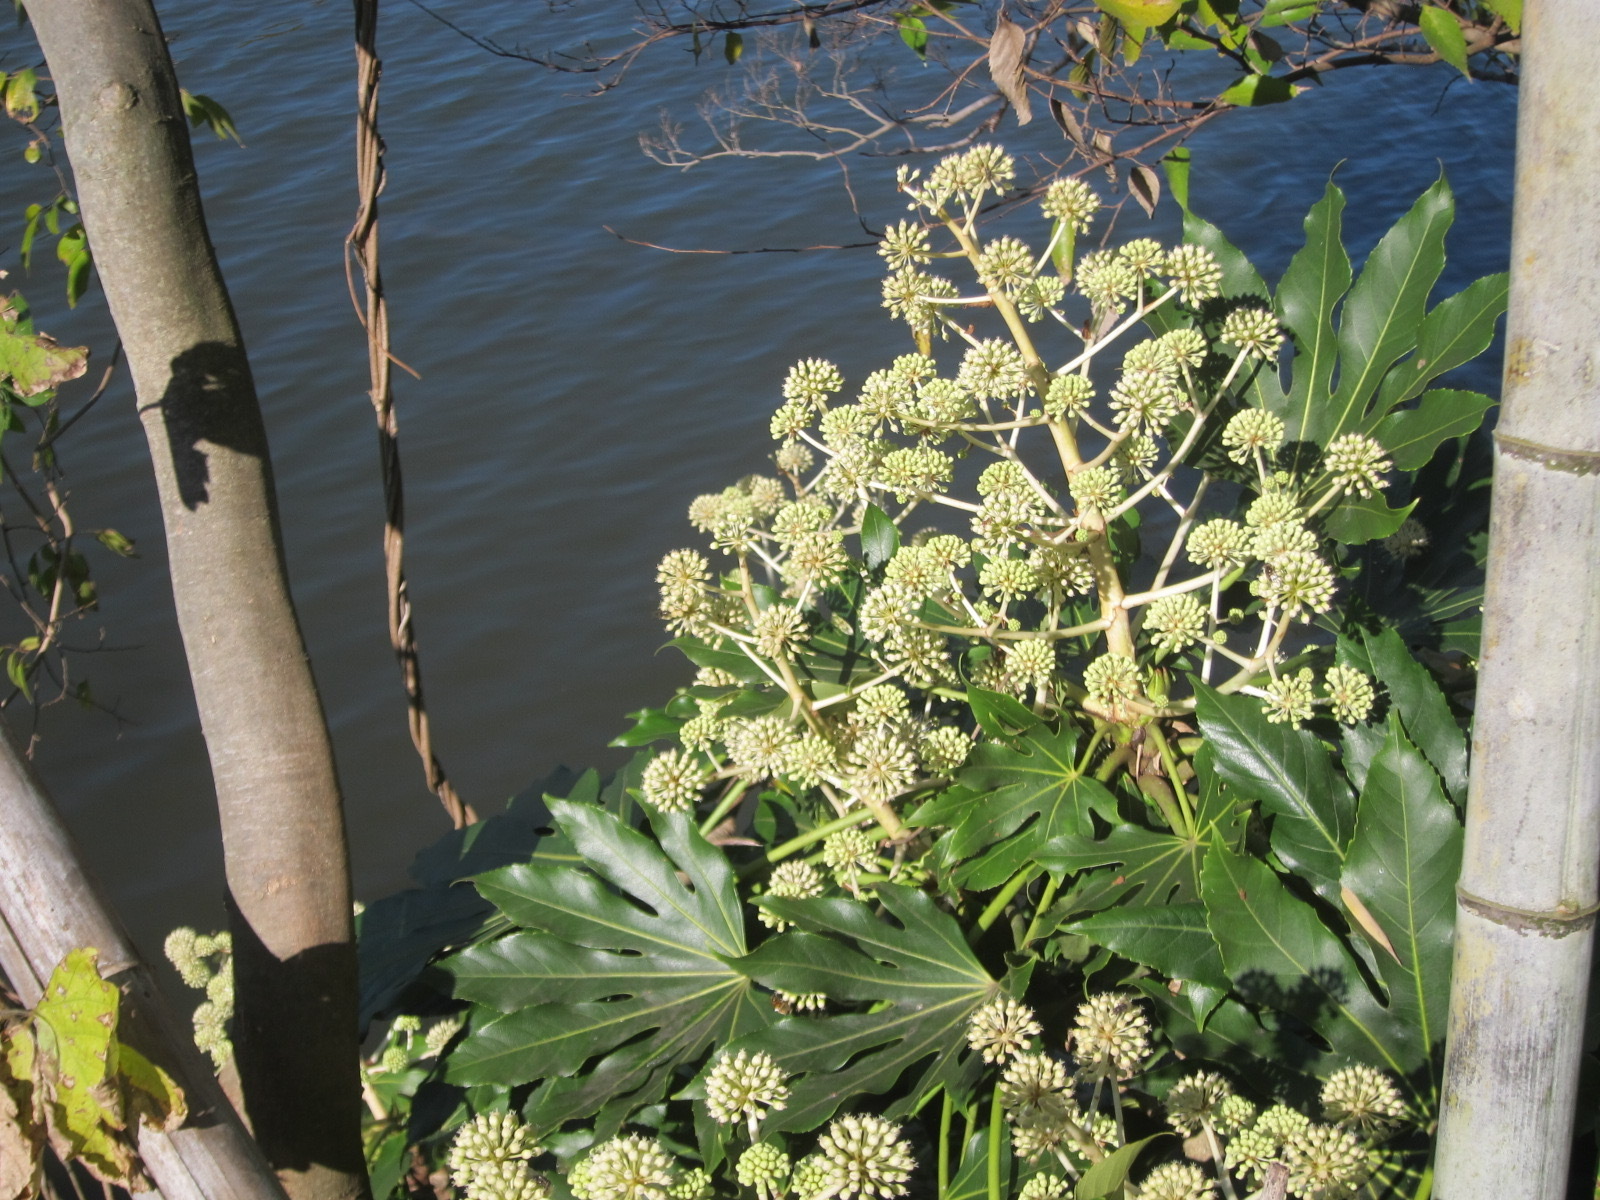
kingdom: Plantae
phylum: Tracheophyta
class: Magnoliopsida
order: Apiales
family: Araliaceae
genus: Fatsia
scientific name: Fatsia japonica
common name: Fatsia
